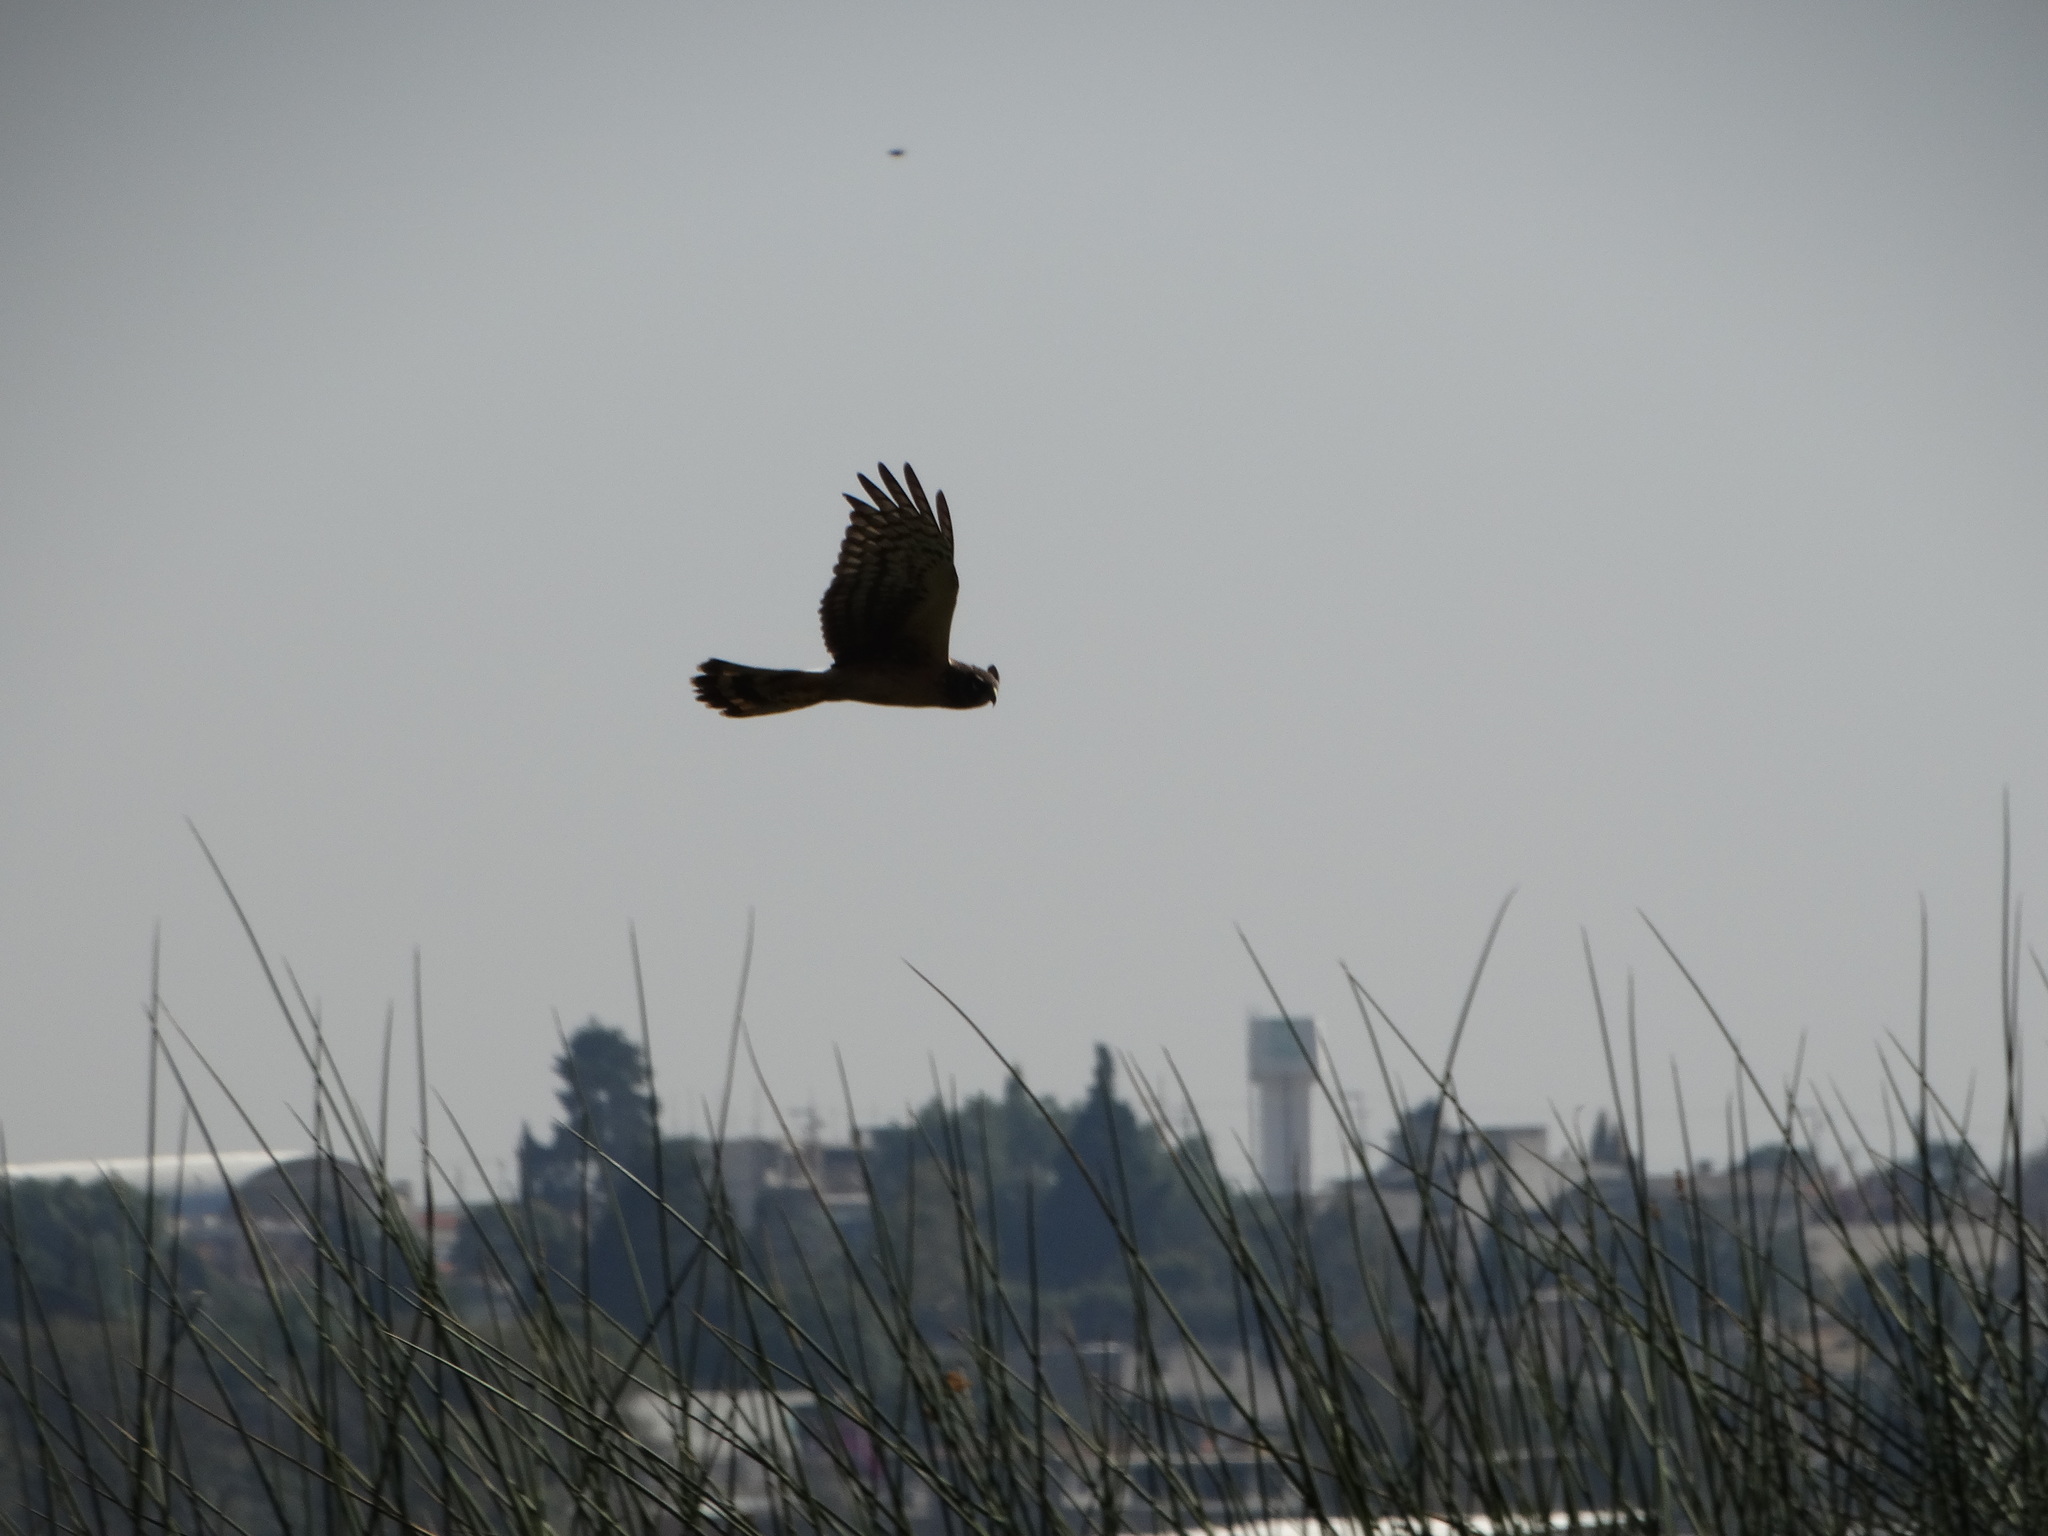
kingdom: Animalia
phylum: Chordata
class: Aves
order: Accipitriformes
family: Accipitridae
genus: Circus
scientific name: Circus cyaneus
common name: Hen harrier
